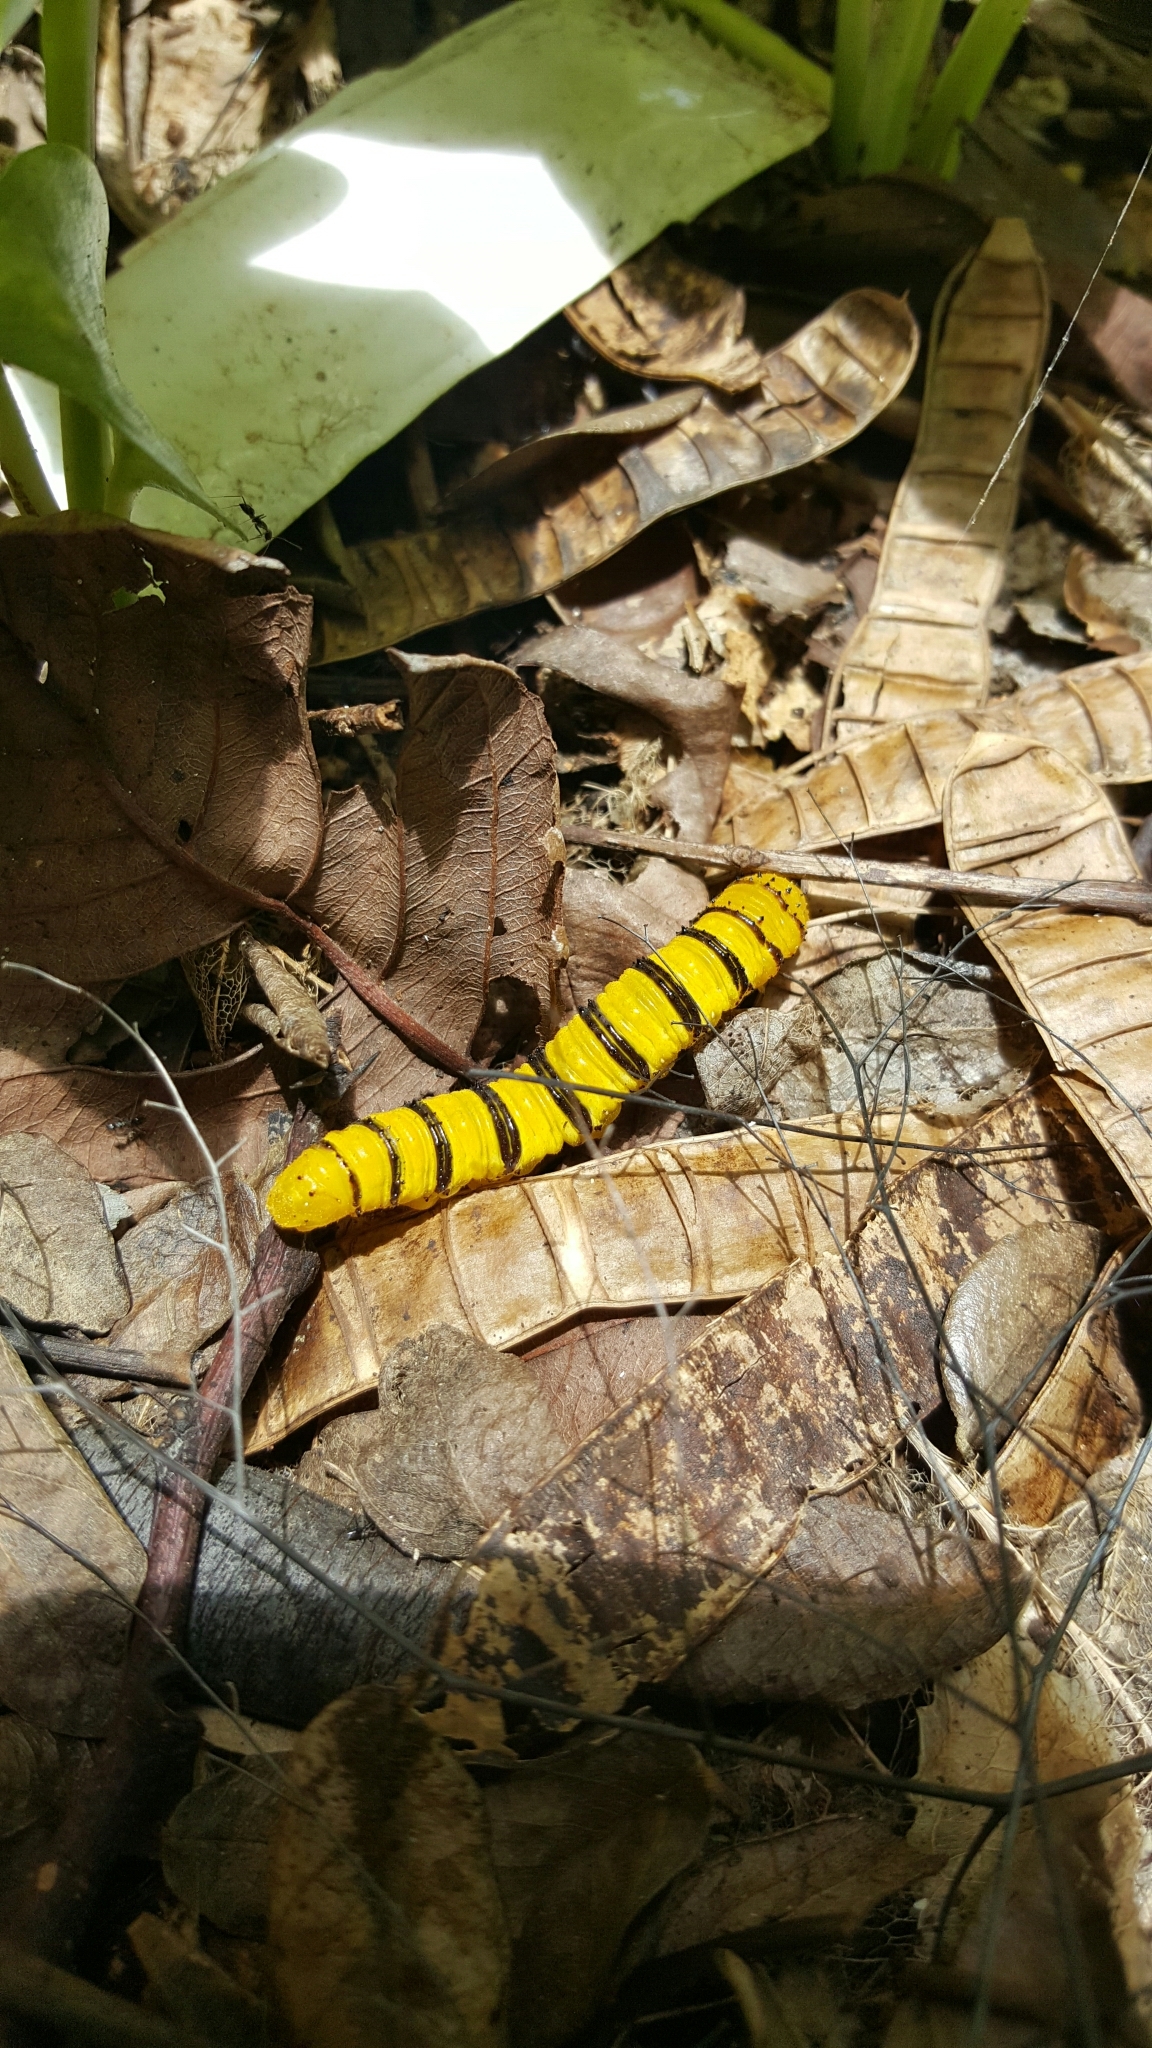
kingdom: Animalia
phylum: Arthropoda
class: Insecta
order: Lepidoptera
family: Pieridae
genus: Phoebis
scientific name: Phoebis sennae
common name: Cloudless sulphur
